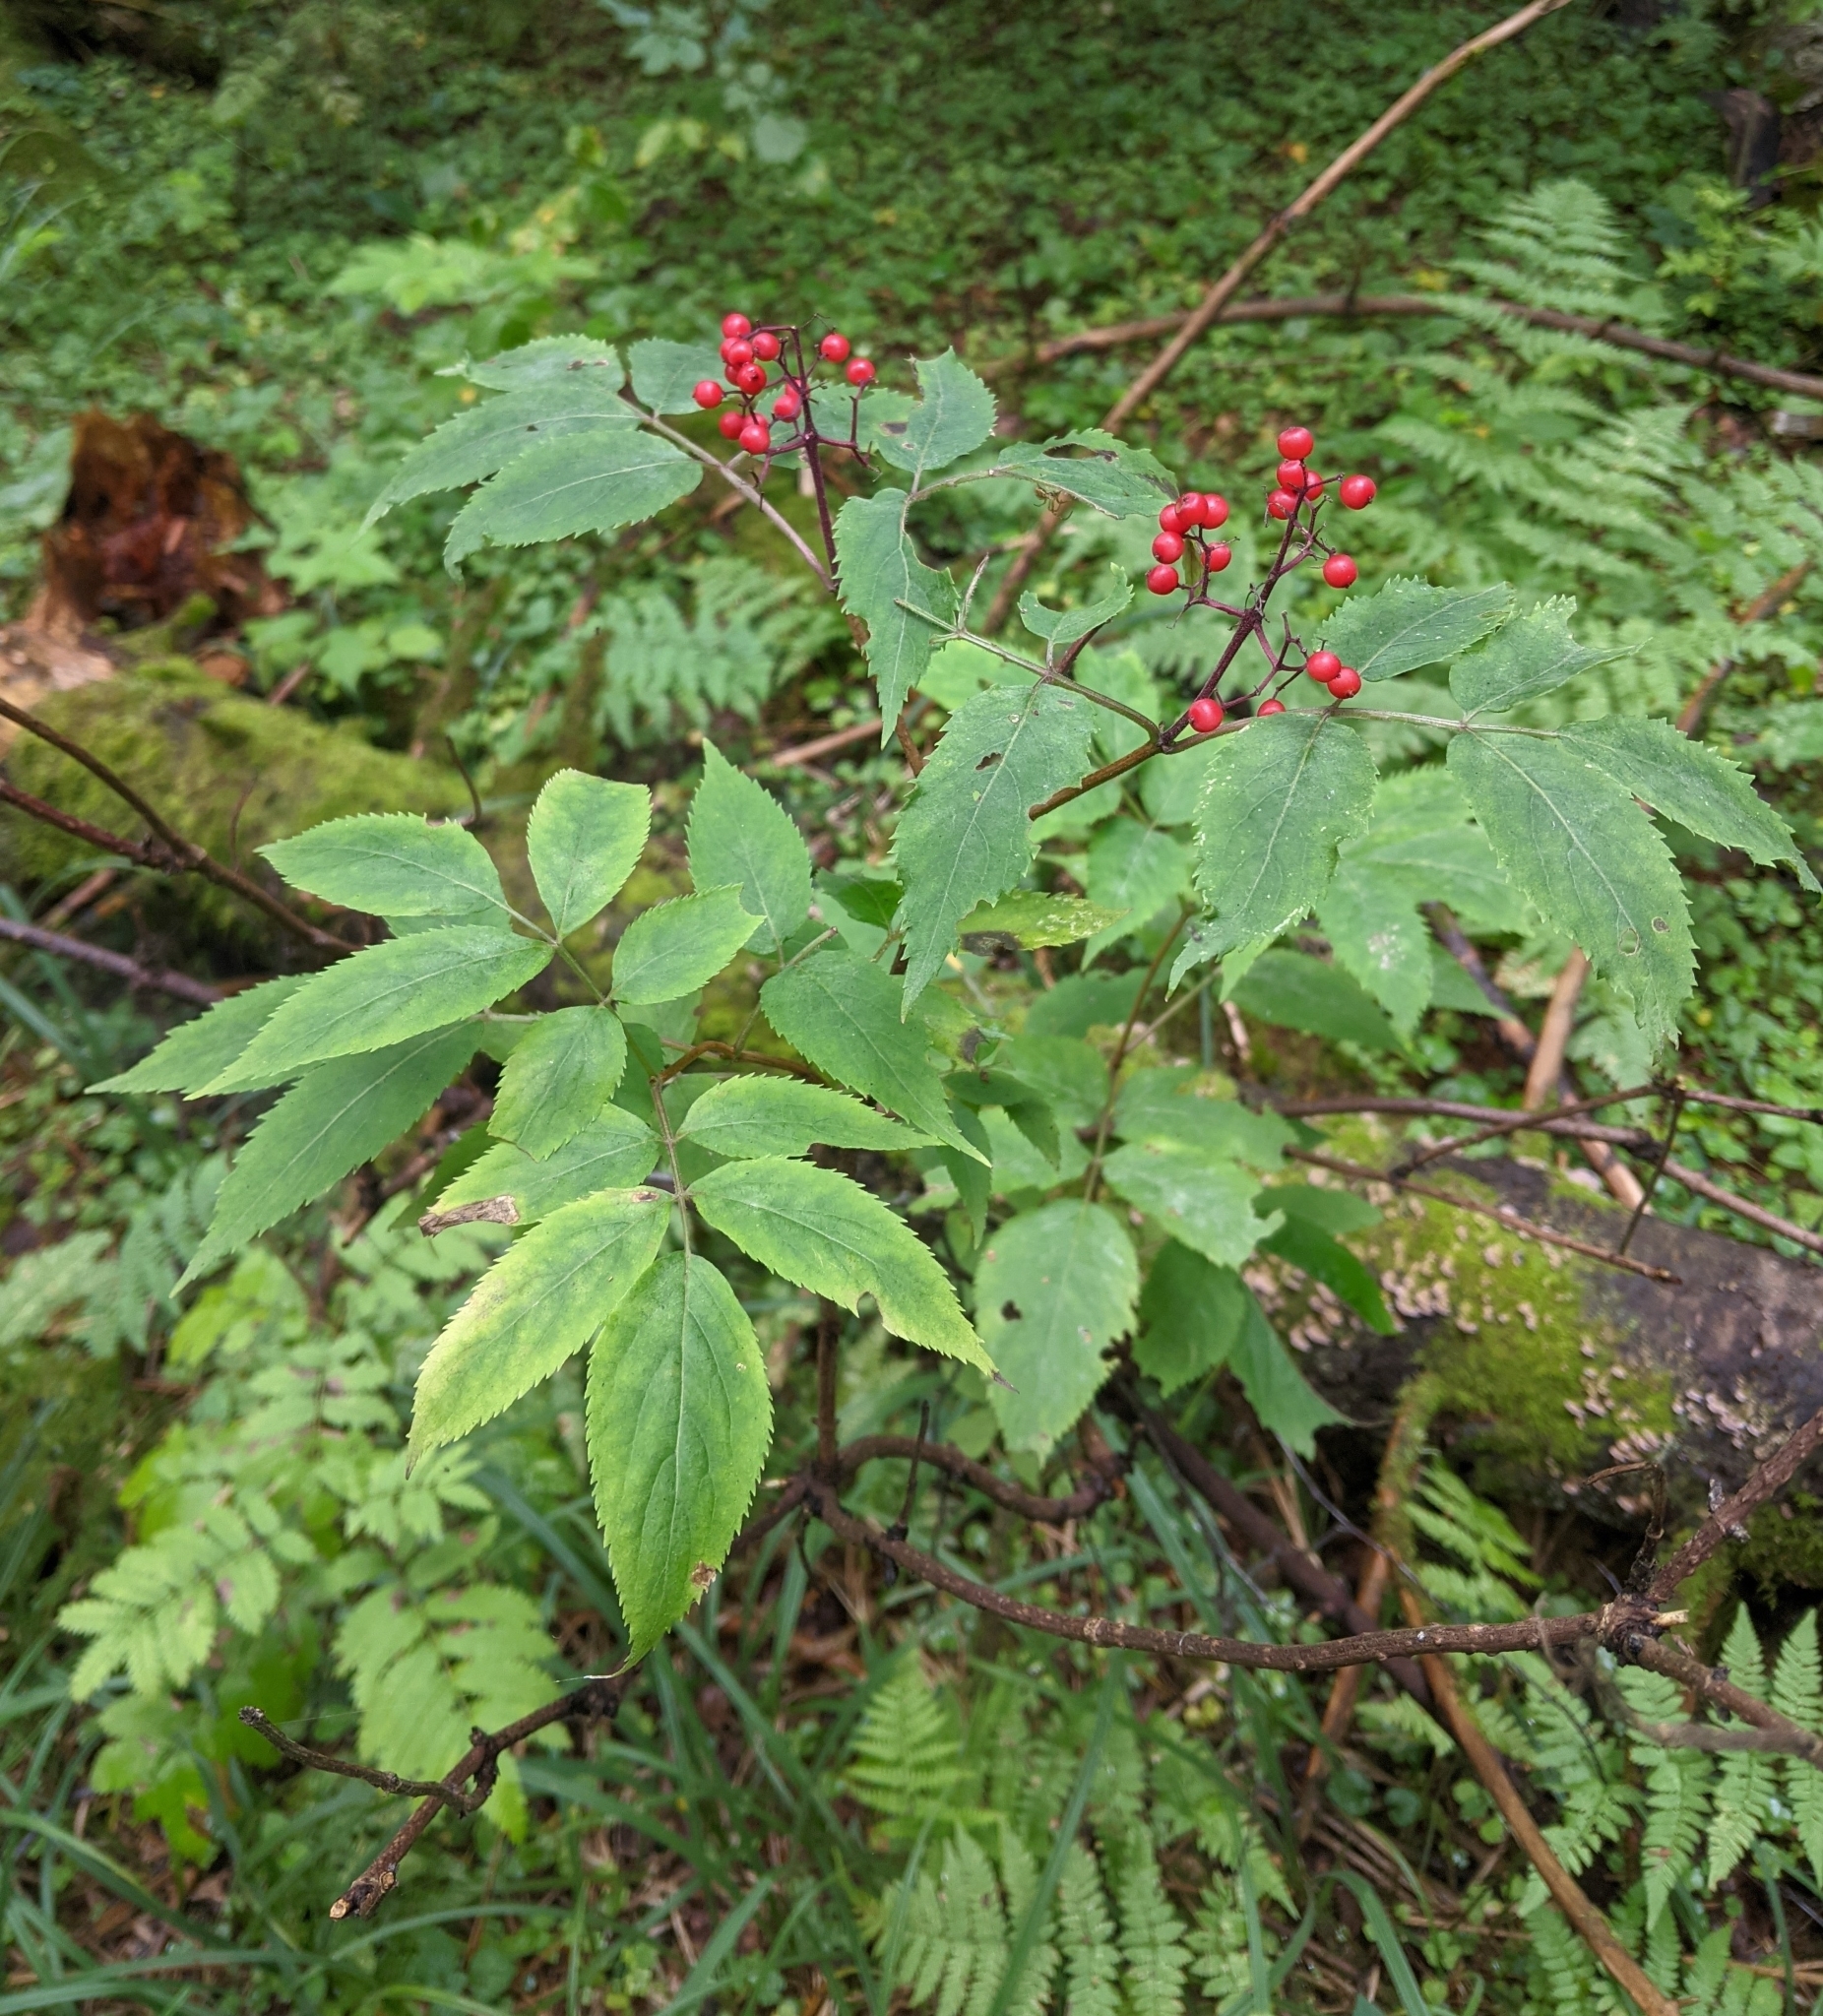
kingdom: Plantae
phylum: Tracheophyta
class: Magnoliopsida
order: Dipsacales
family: Viburnaceae
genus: Sambucus
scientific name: Sambucus racemosa
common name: Red-berried elder
